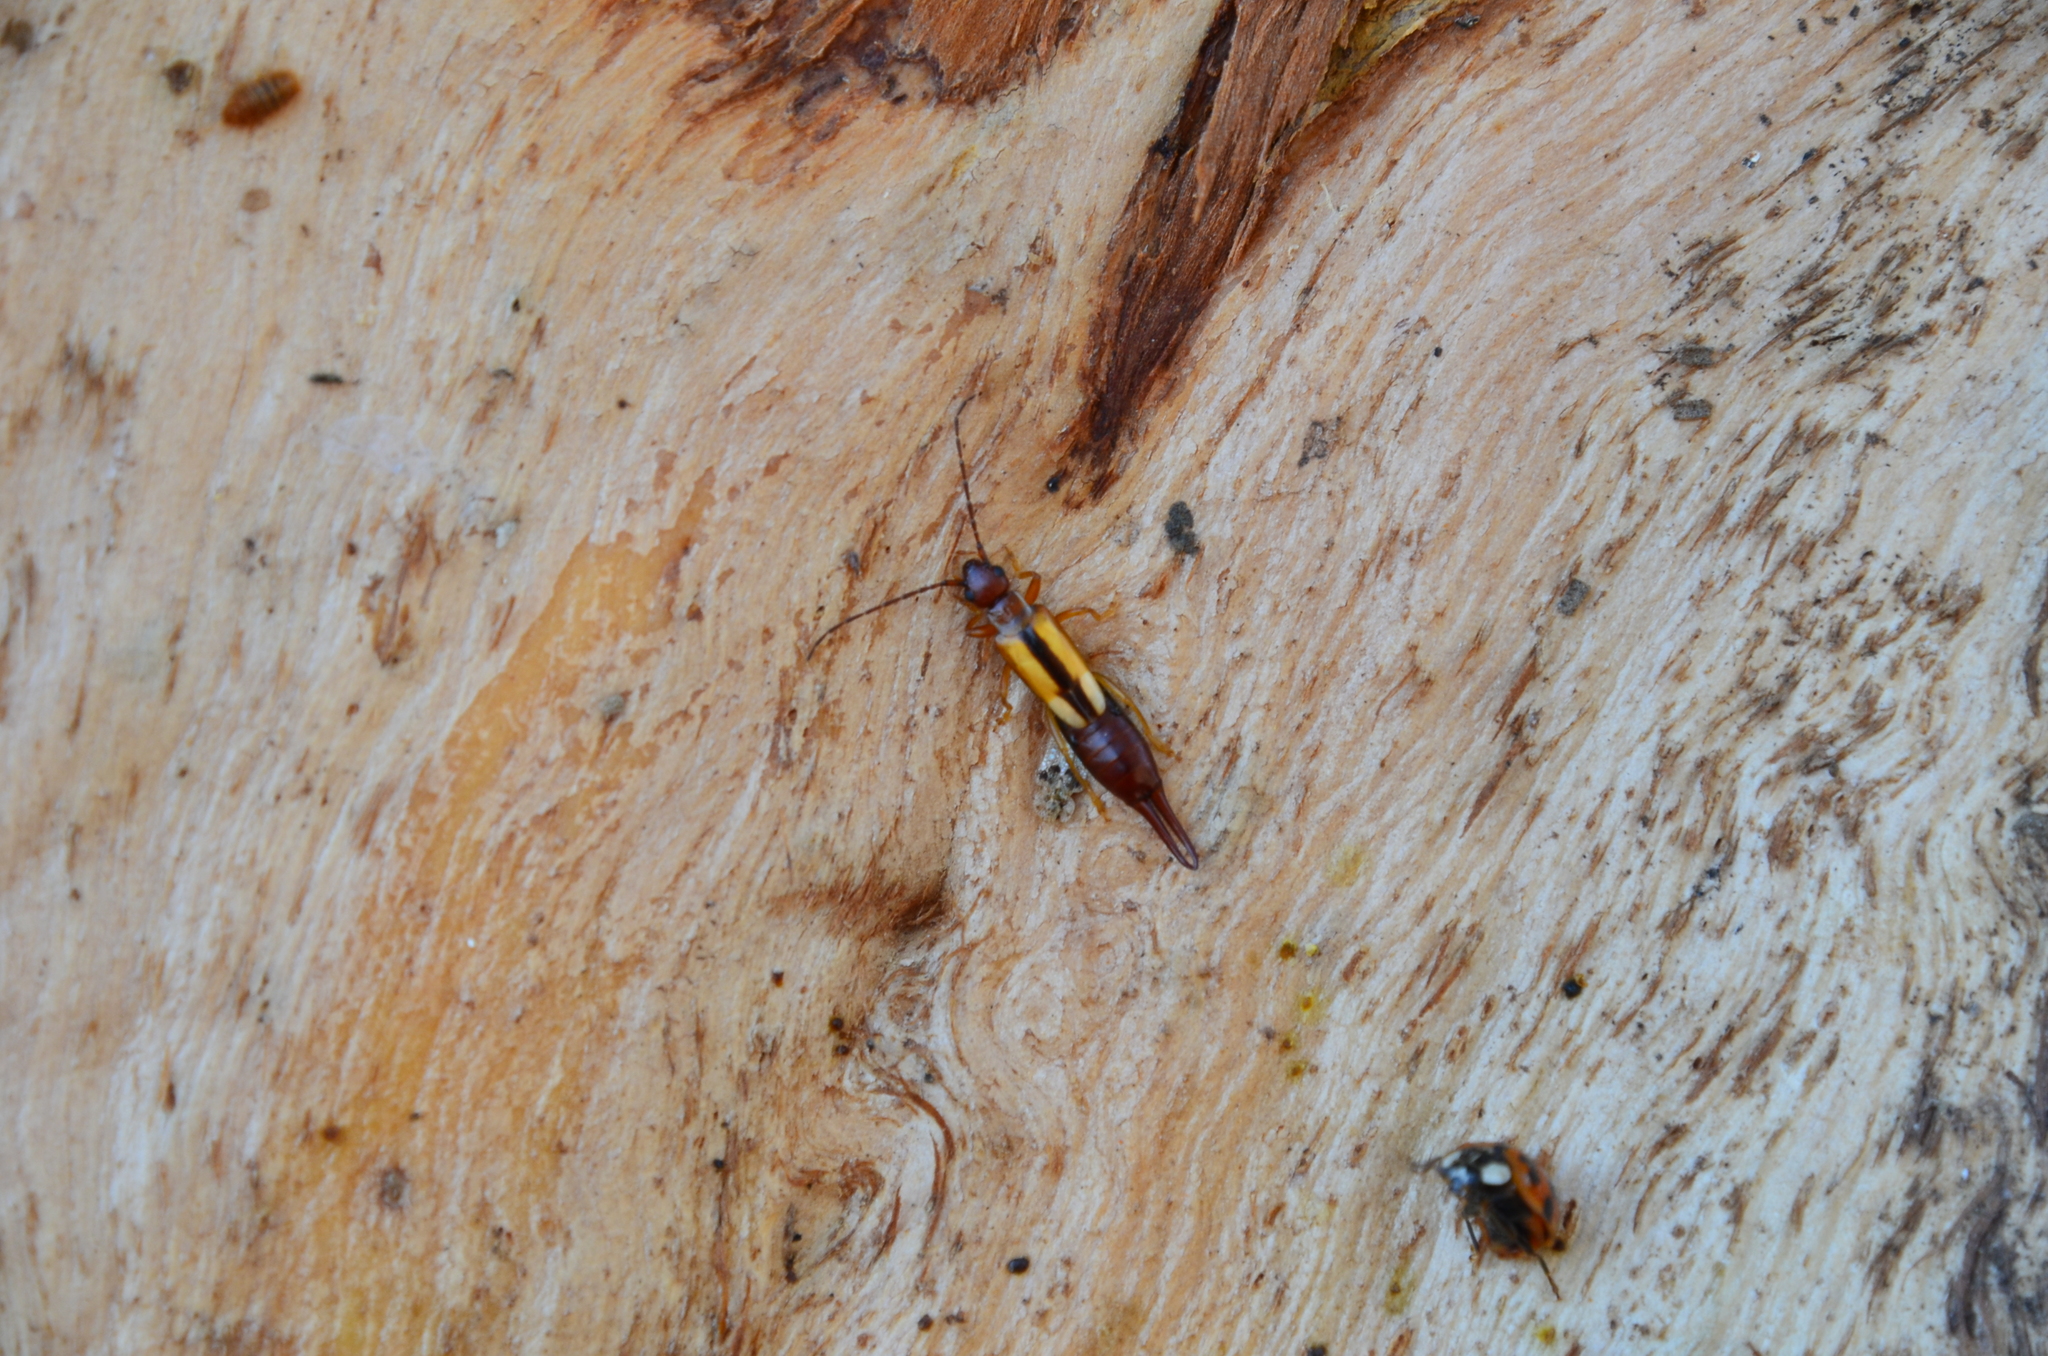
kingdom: Animalia
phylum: Arthropoda
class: Insecta
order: Dermaptera
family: Forficulidae
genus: Doru
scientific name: Doru lineare
